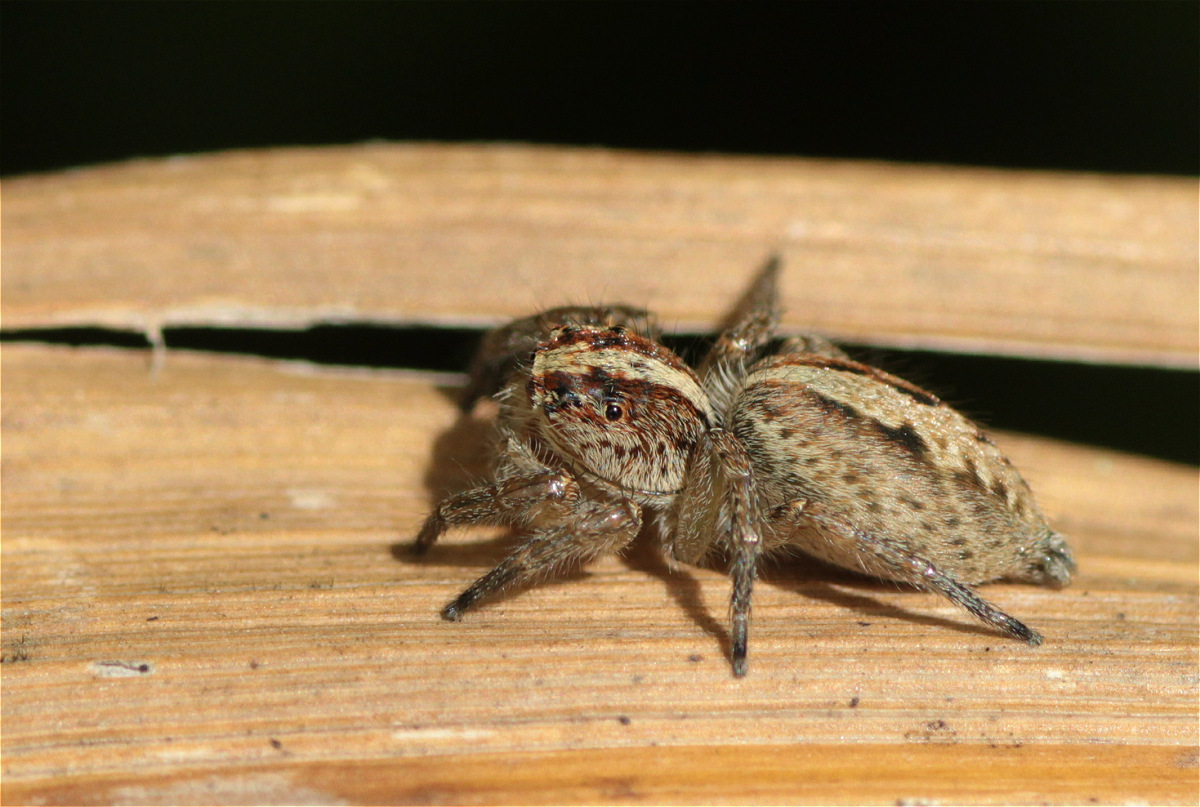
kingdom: Animalia
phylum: Arthropoda
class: Arachnida
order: Araneae
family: Salticidae
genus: Frigga
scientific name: Frigga crocuta
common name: Jumping spiders
